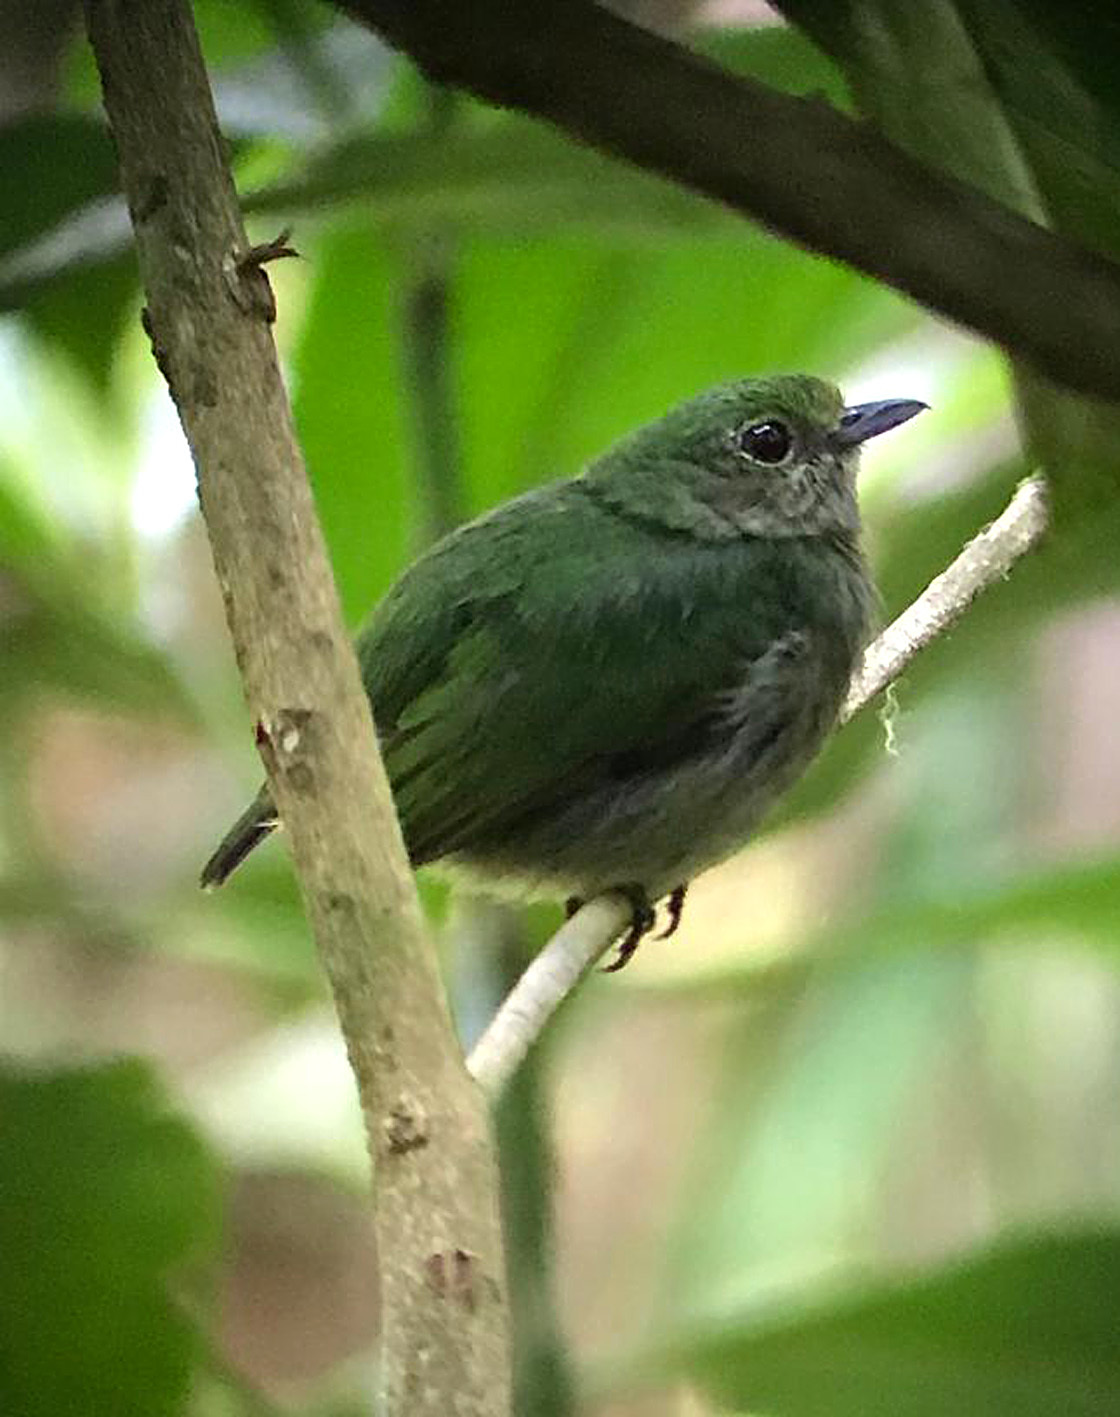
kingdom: Animalia
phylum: Chordata
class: Aves
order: Passeriformes
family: Pipridae
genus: Lepidothrix
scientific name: Lepidothrix coronata
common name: Blue-crowned manakin
